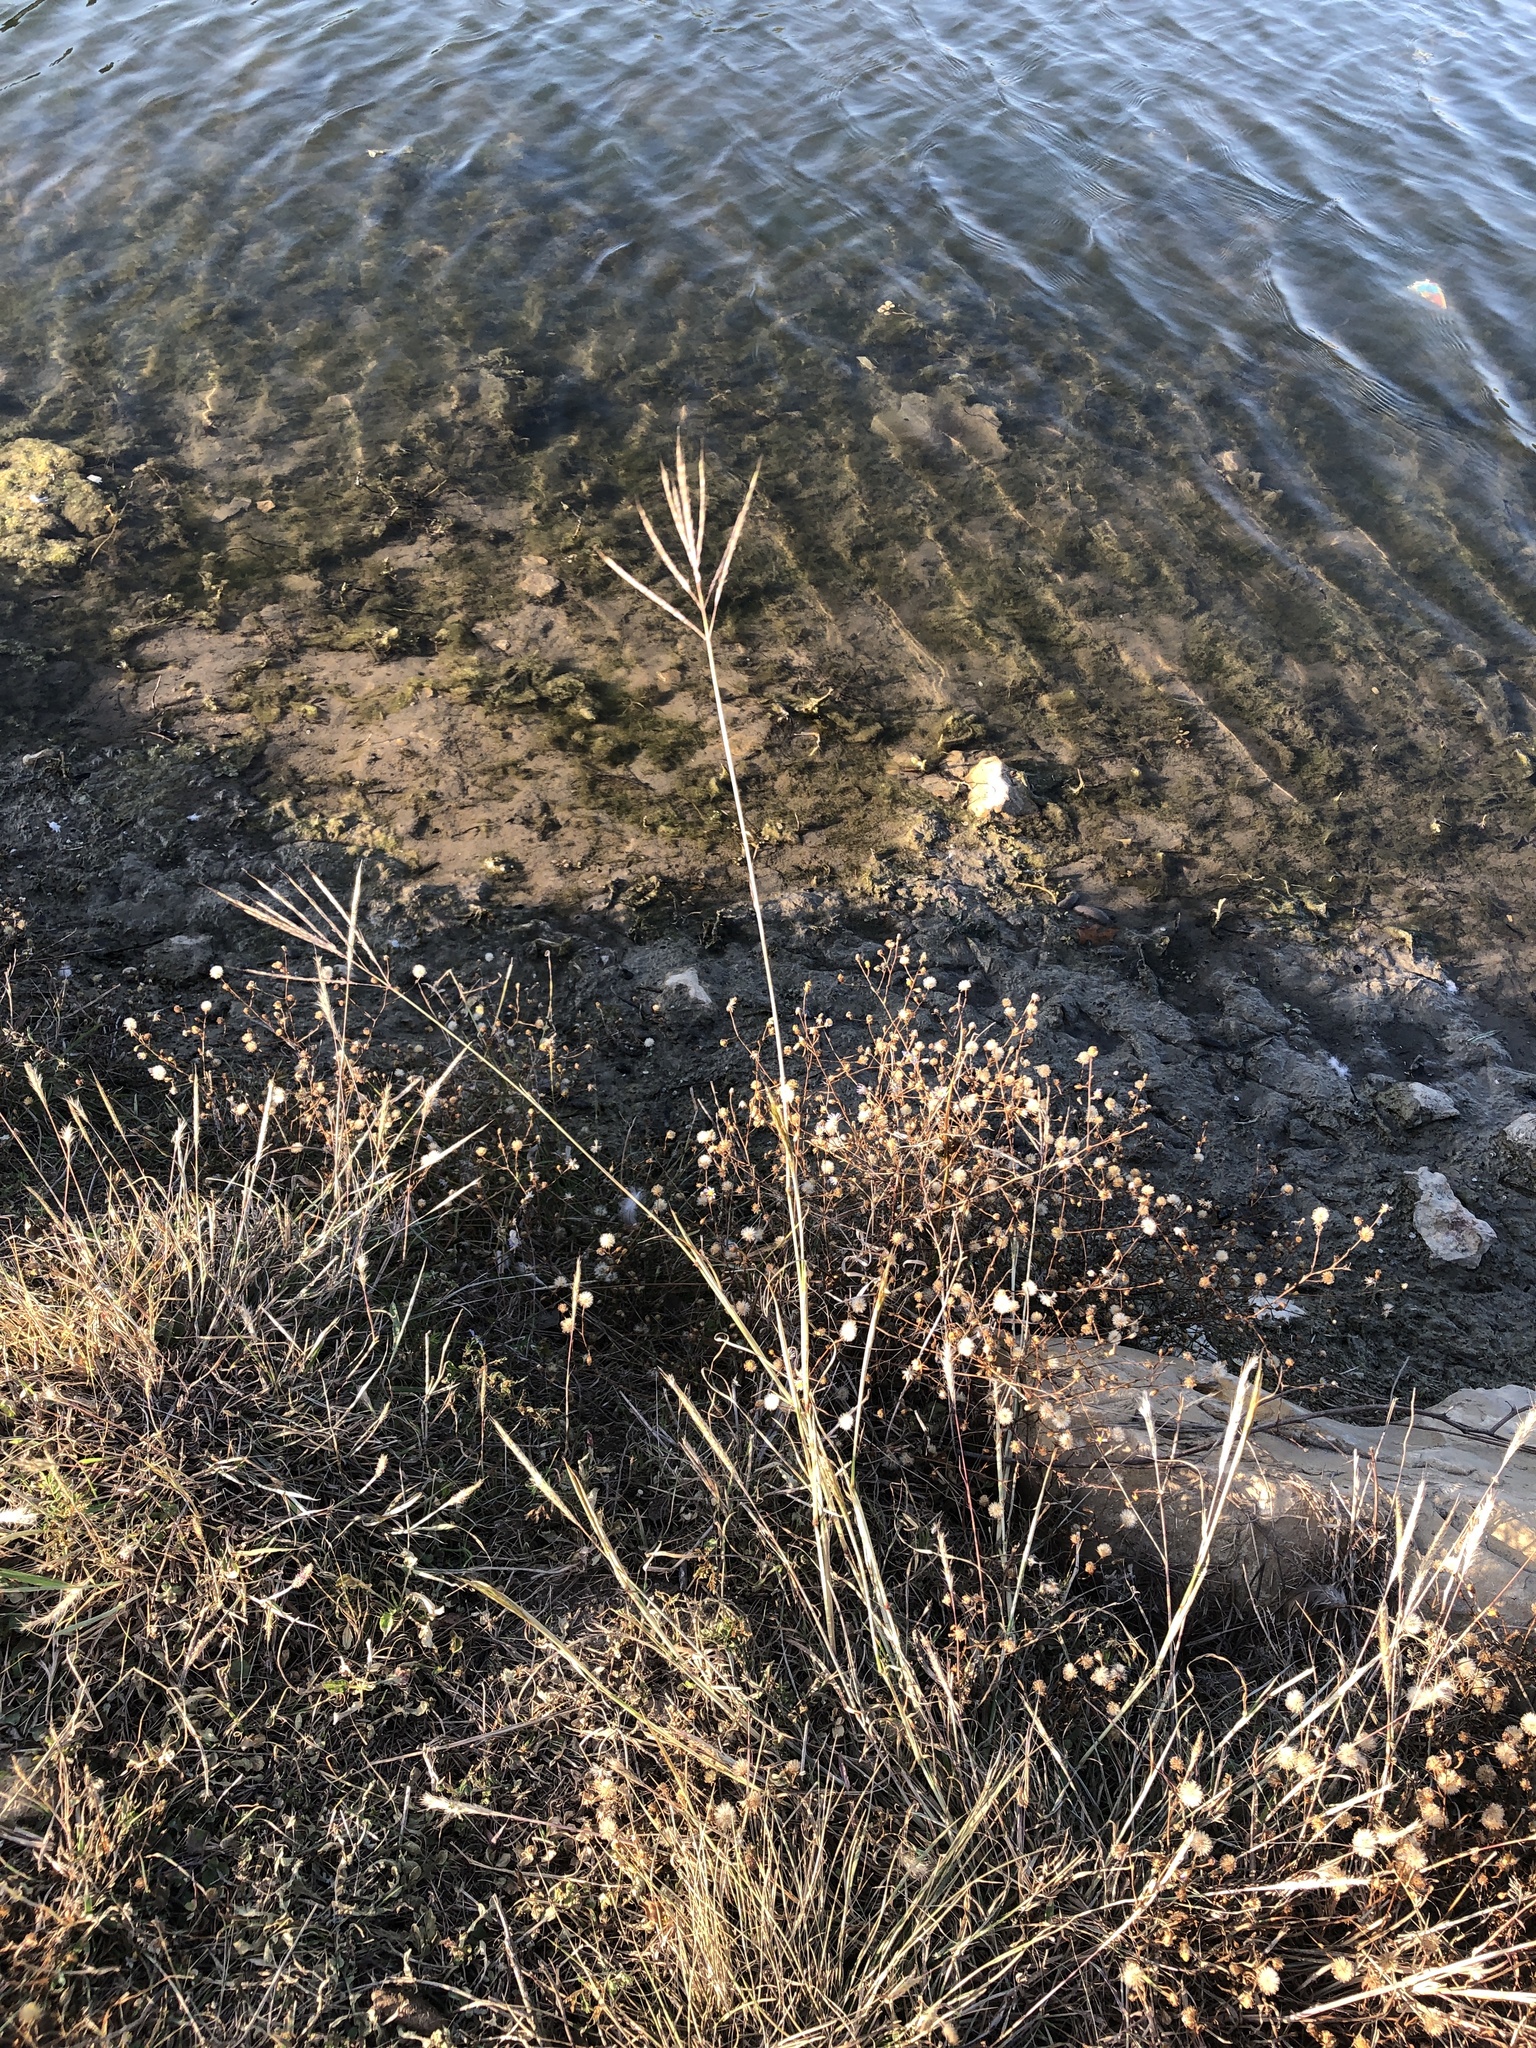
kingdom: Plantae
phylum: Tracheophyta
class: Liliopsida
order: Poales
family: Poaceae
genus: Bothriochloa
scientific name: Bothriochloa ischaemum
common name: Yellow bluestem
